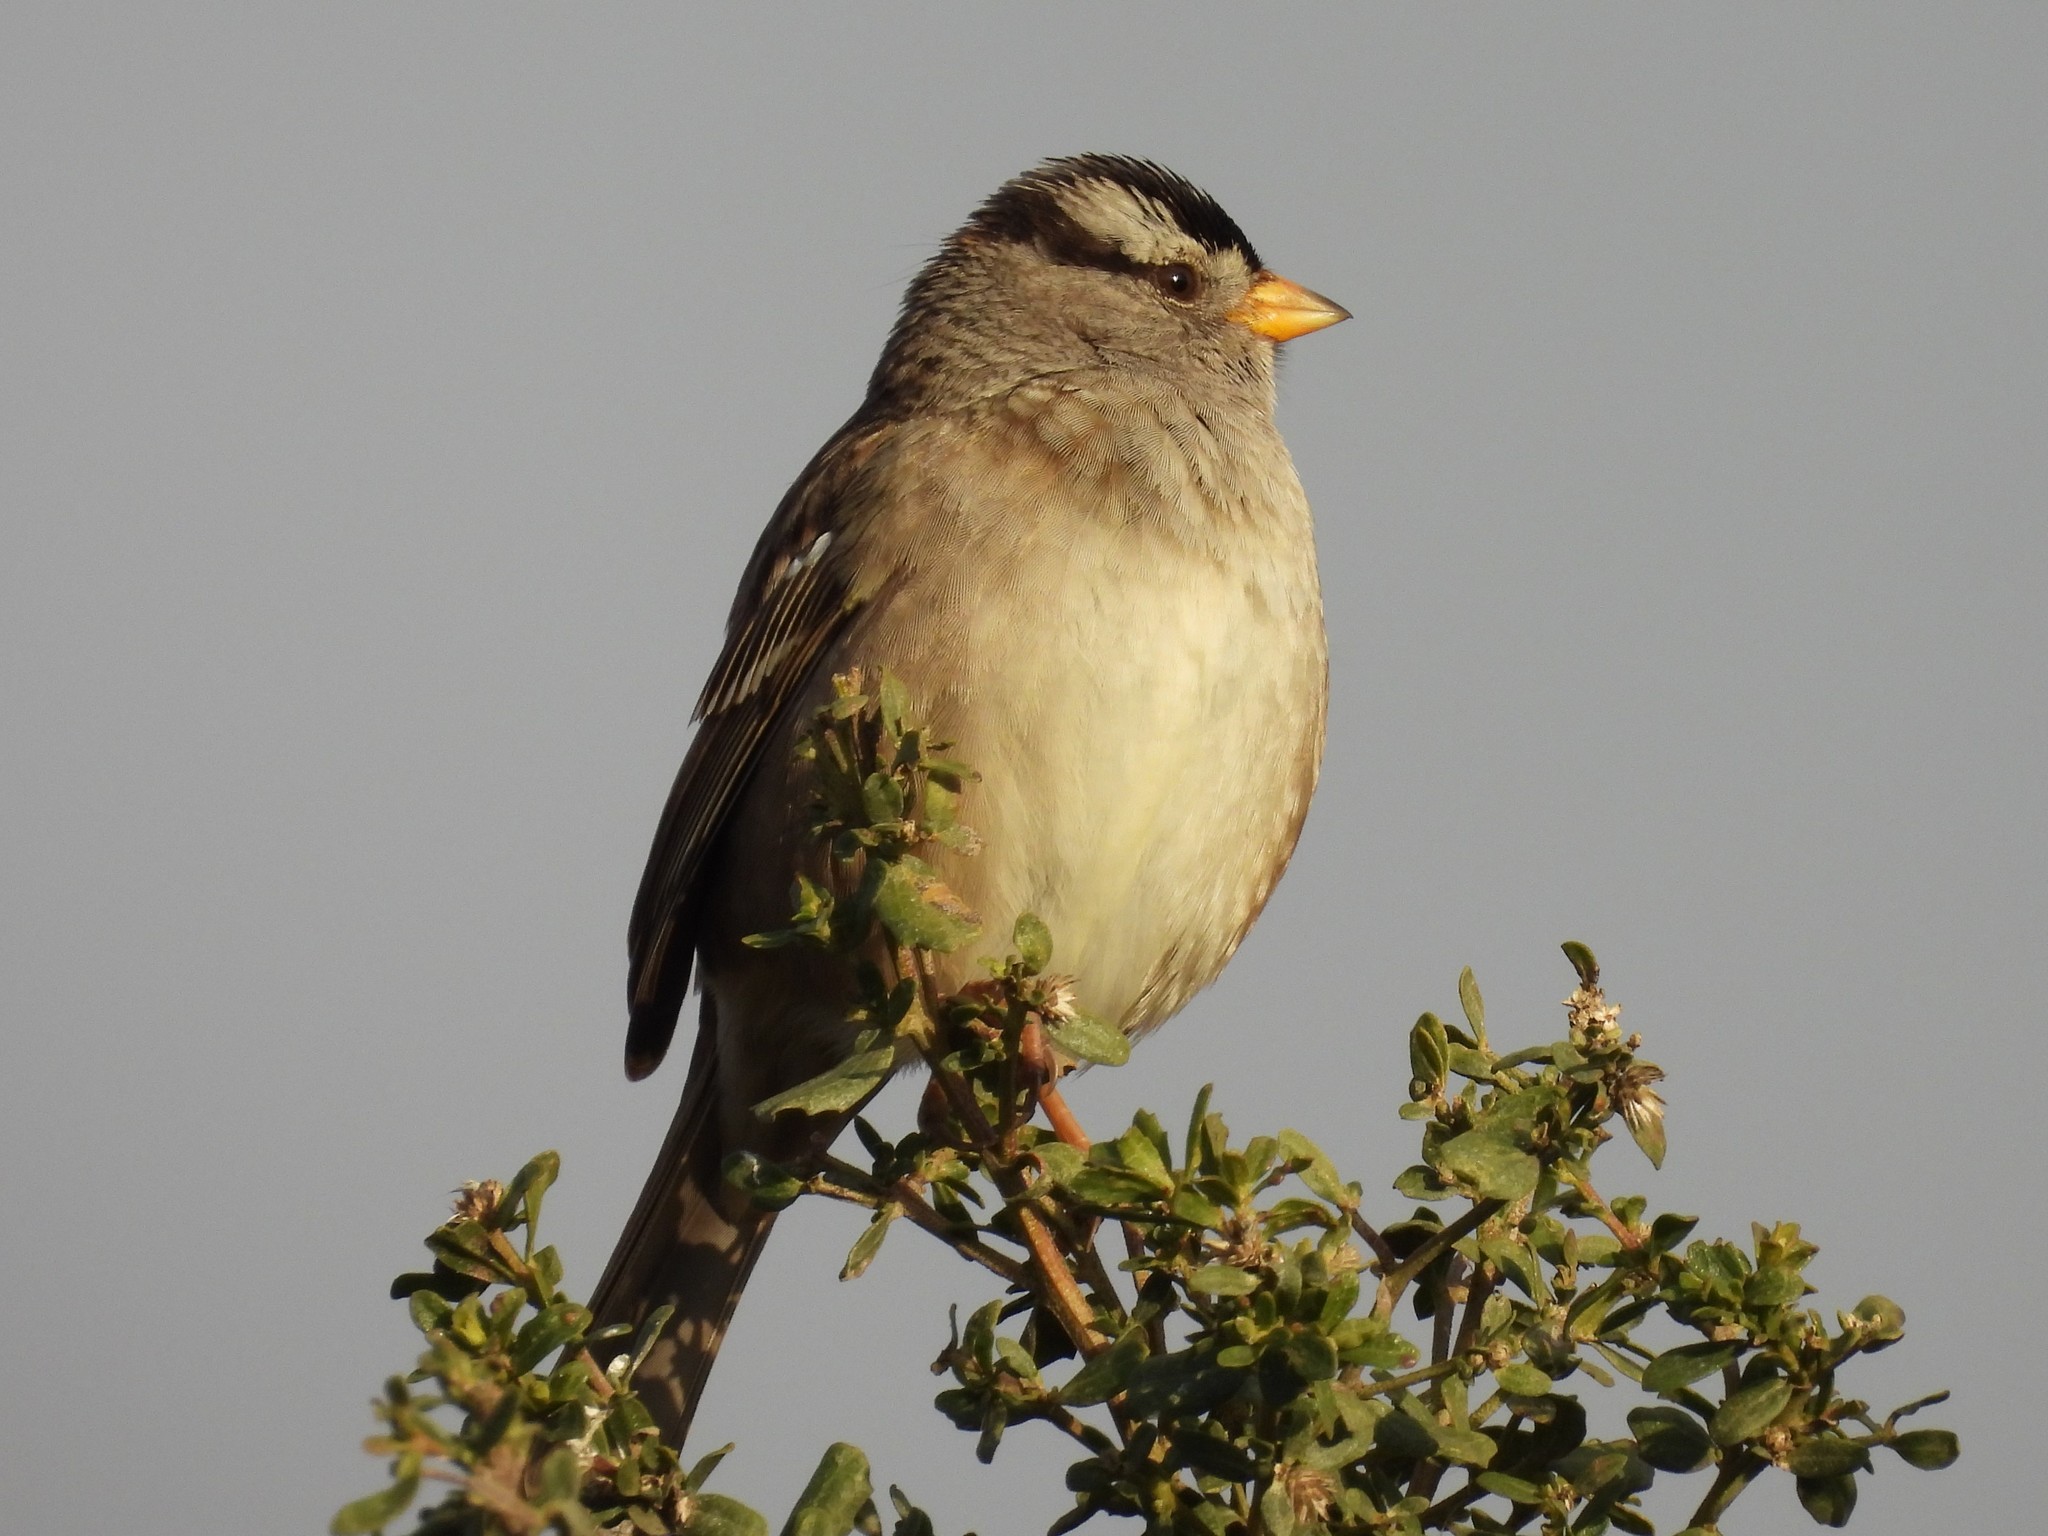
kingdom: Animalia
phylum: Chordata
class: Aves
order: Passeriformes
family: Passerellidae
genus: Zonotrichia
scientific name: Zonotrichia leucophrys
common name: White-crowned sparrow
